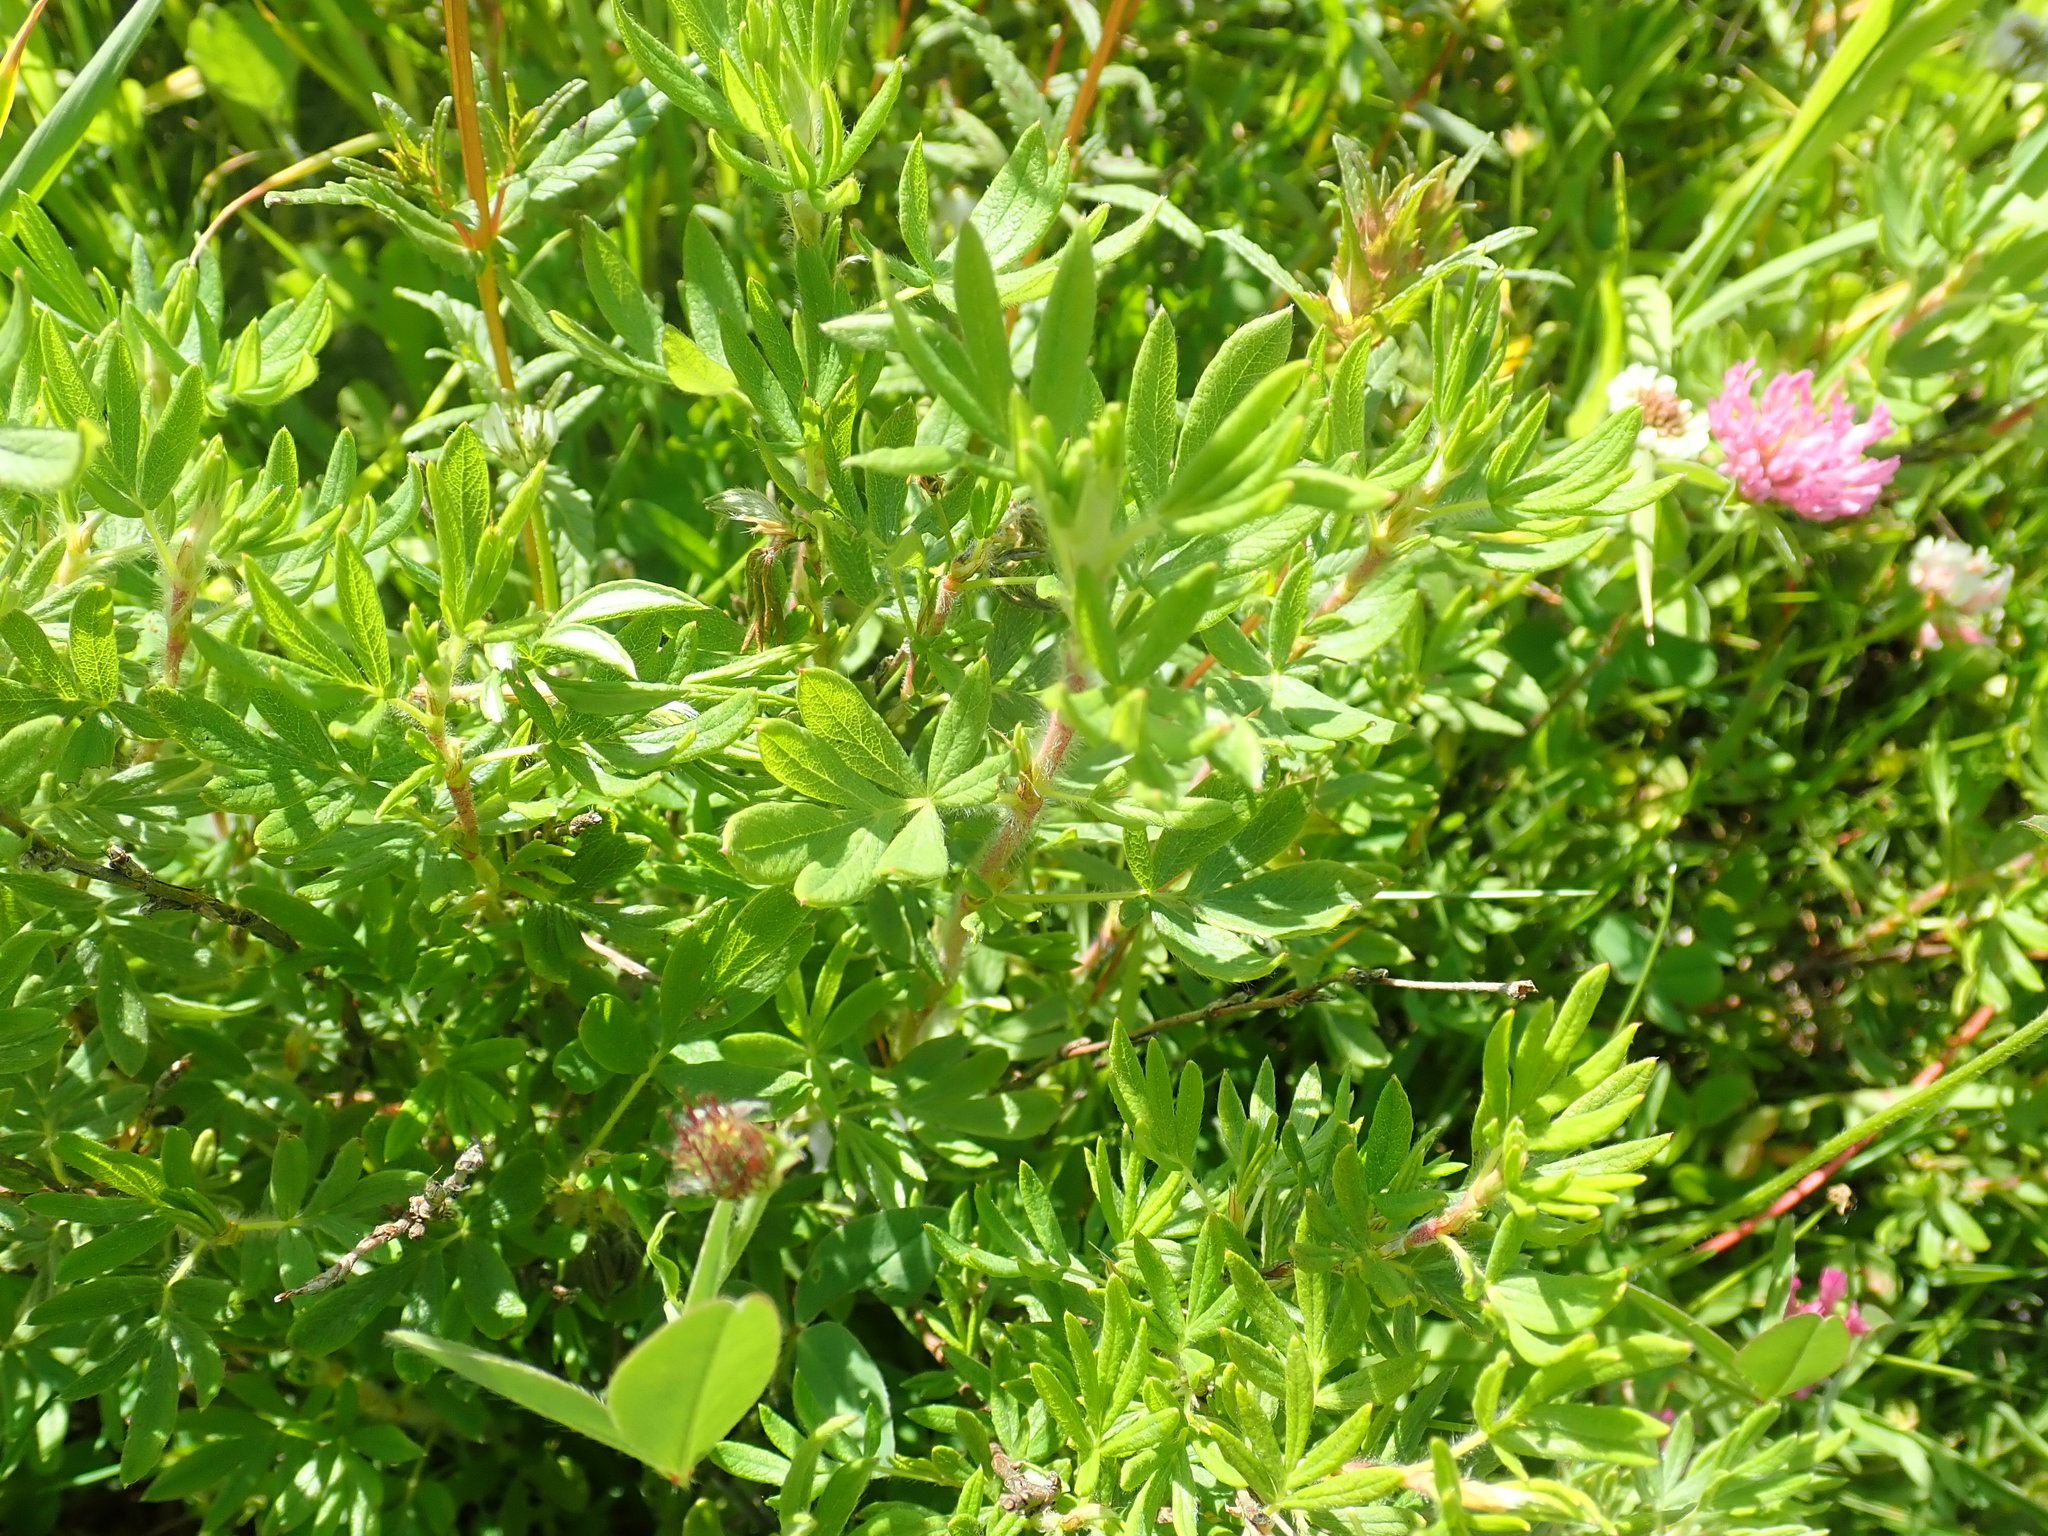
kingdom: Plantae
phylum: Tracheophyta
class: Magnoliopsida
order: Rosales
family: Rosaceae
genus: Dasiphora
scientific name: Dasiphora fruticosa
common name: Shrubby cinquefoil
